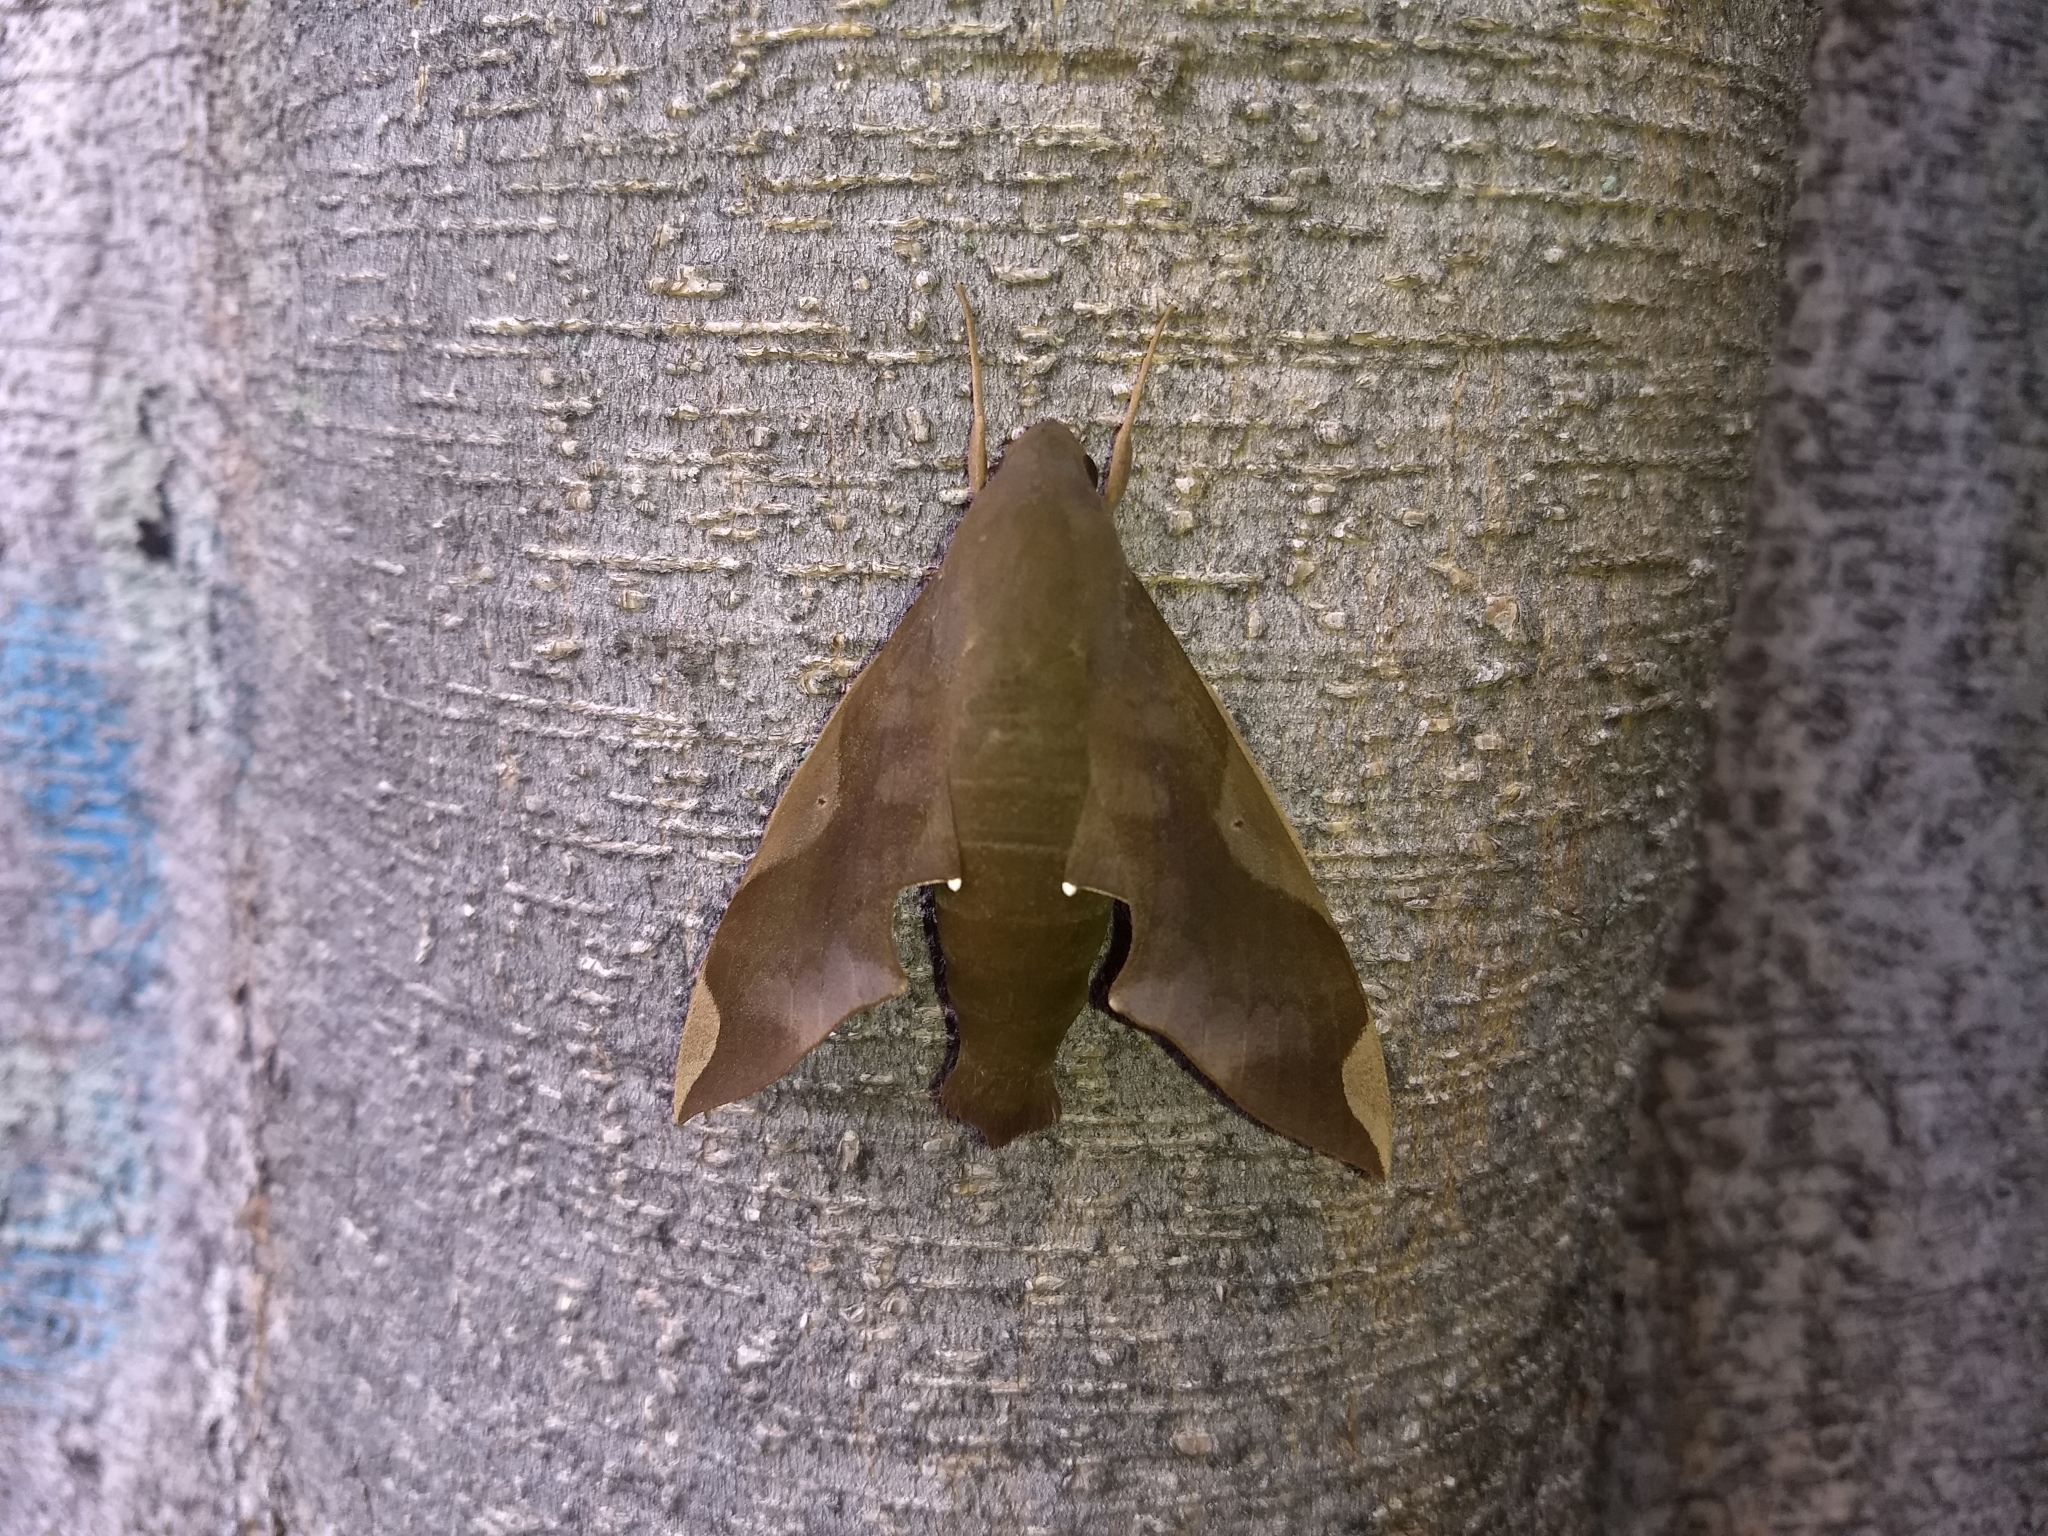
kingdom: Animalia
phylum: Arthropoda
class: Insecta
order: Lepidoptera
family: Sphingidae
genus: Pachylia
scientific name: Pachylia syces
